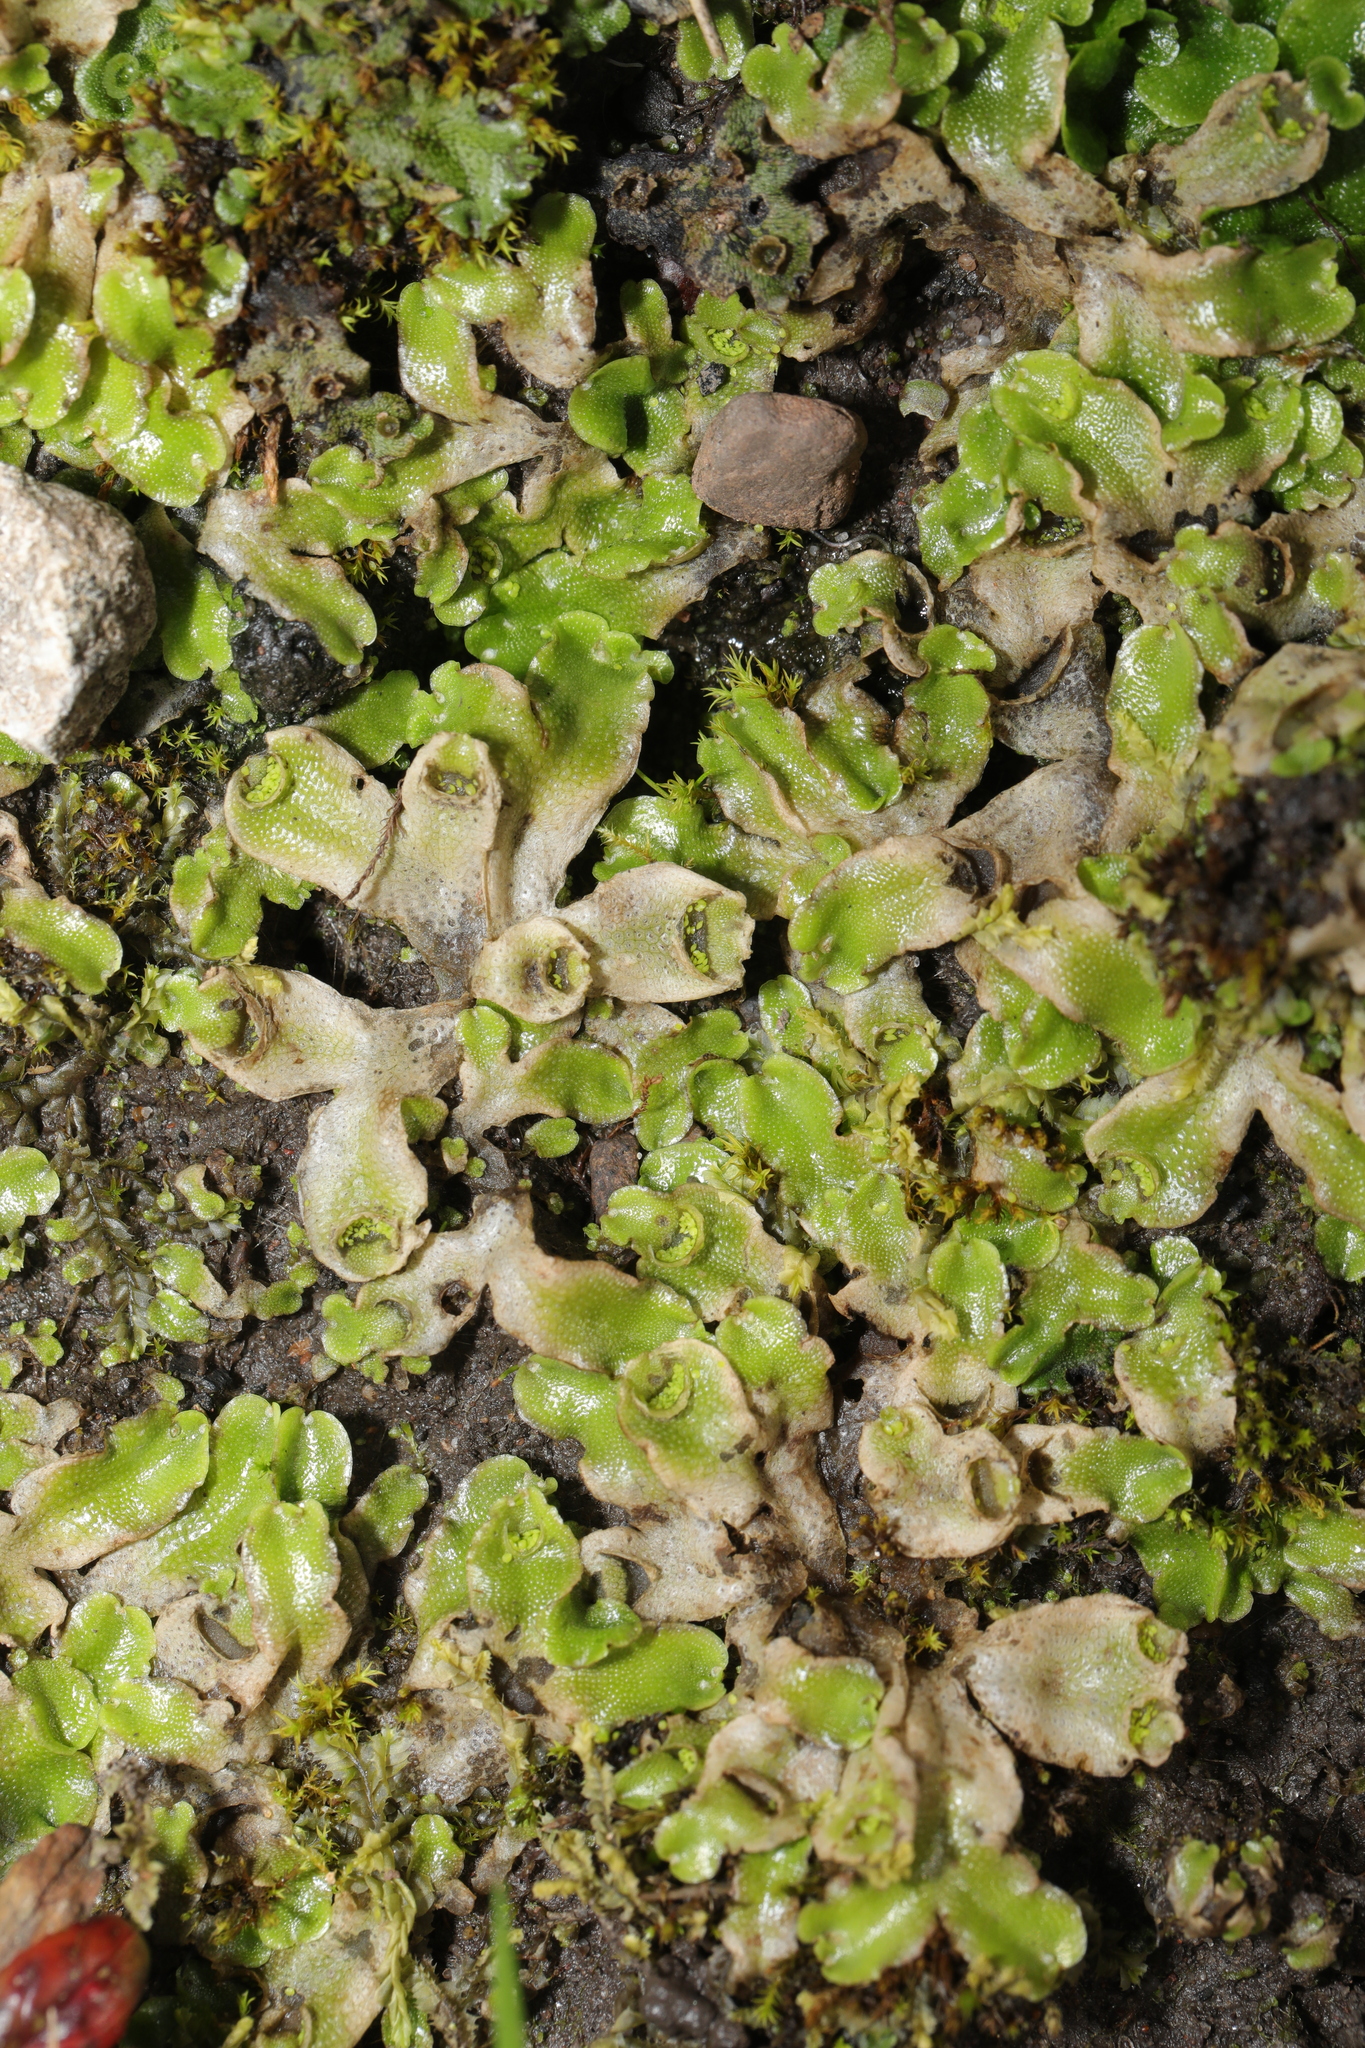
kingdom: Plantae
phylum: Marchantiophyta
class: Marchantiopsida
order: Lunulariales
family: Lunulariaceae
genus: Lunularia
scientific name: Lunularia cruciata
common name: Crescent-cup liverwort
